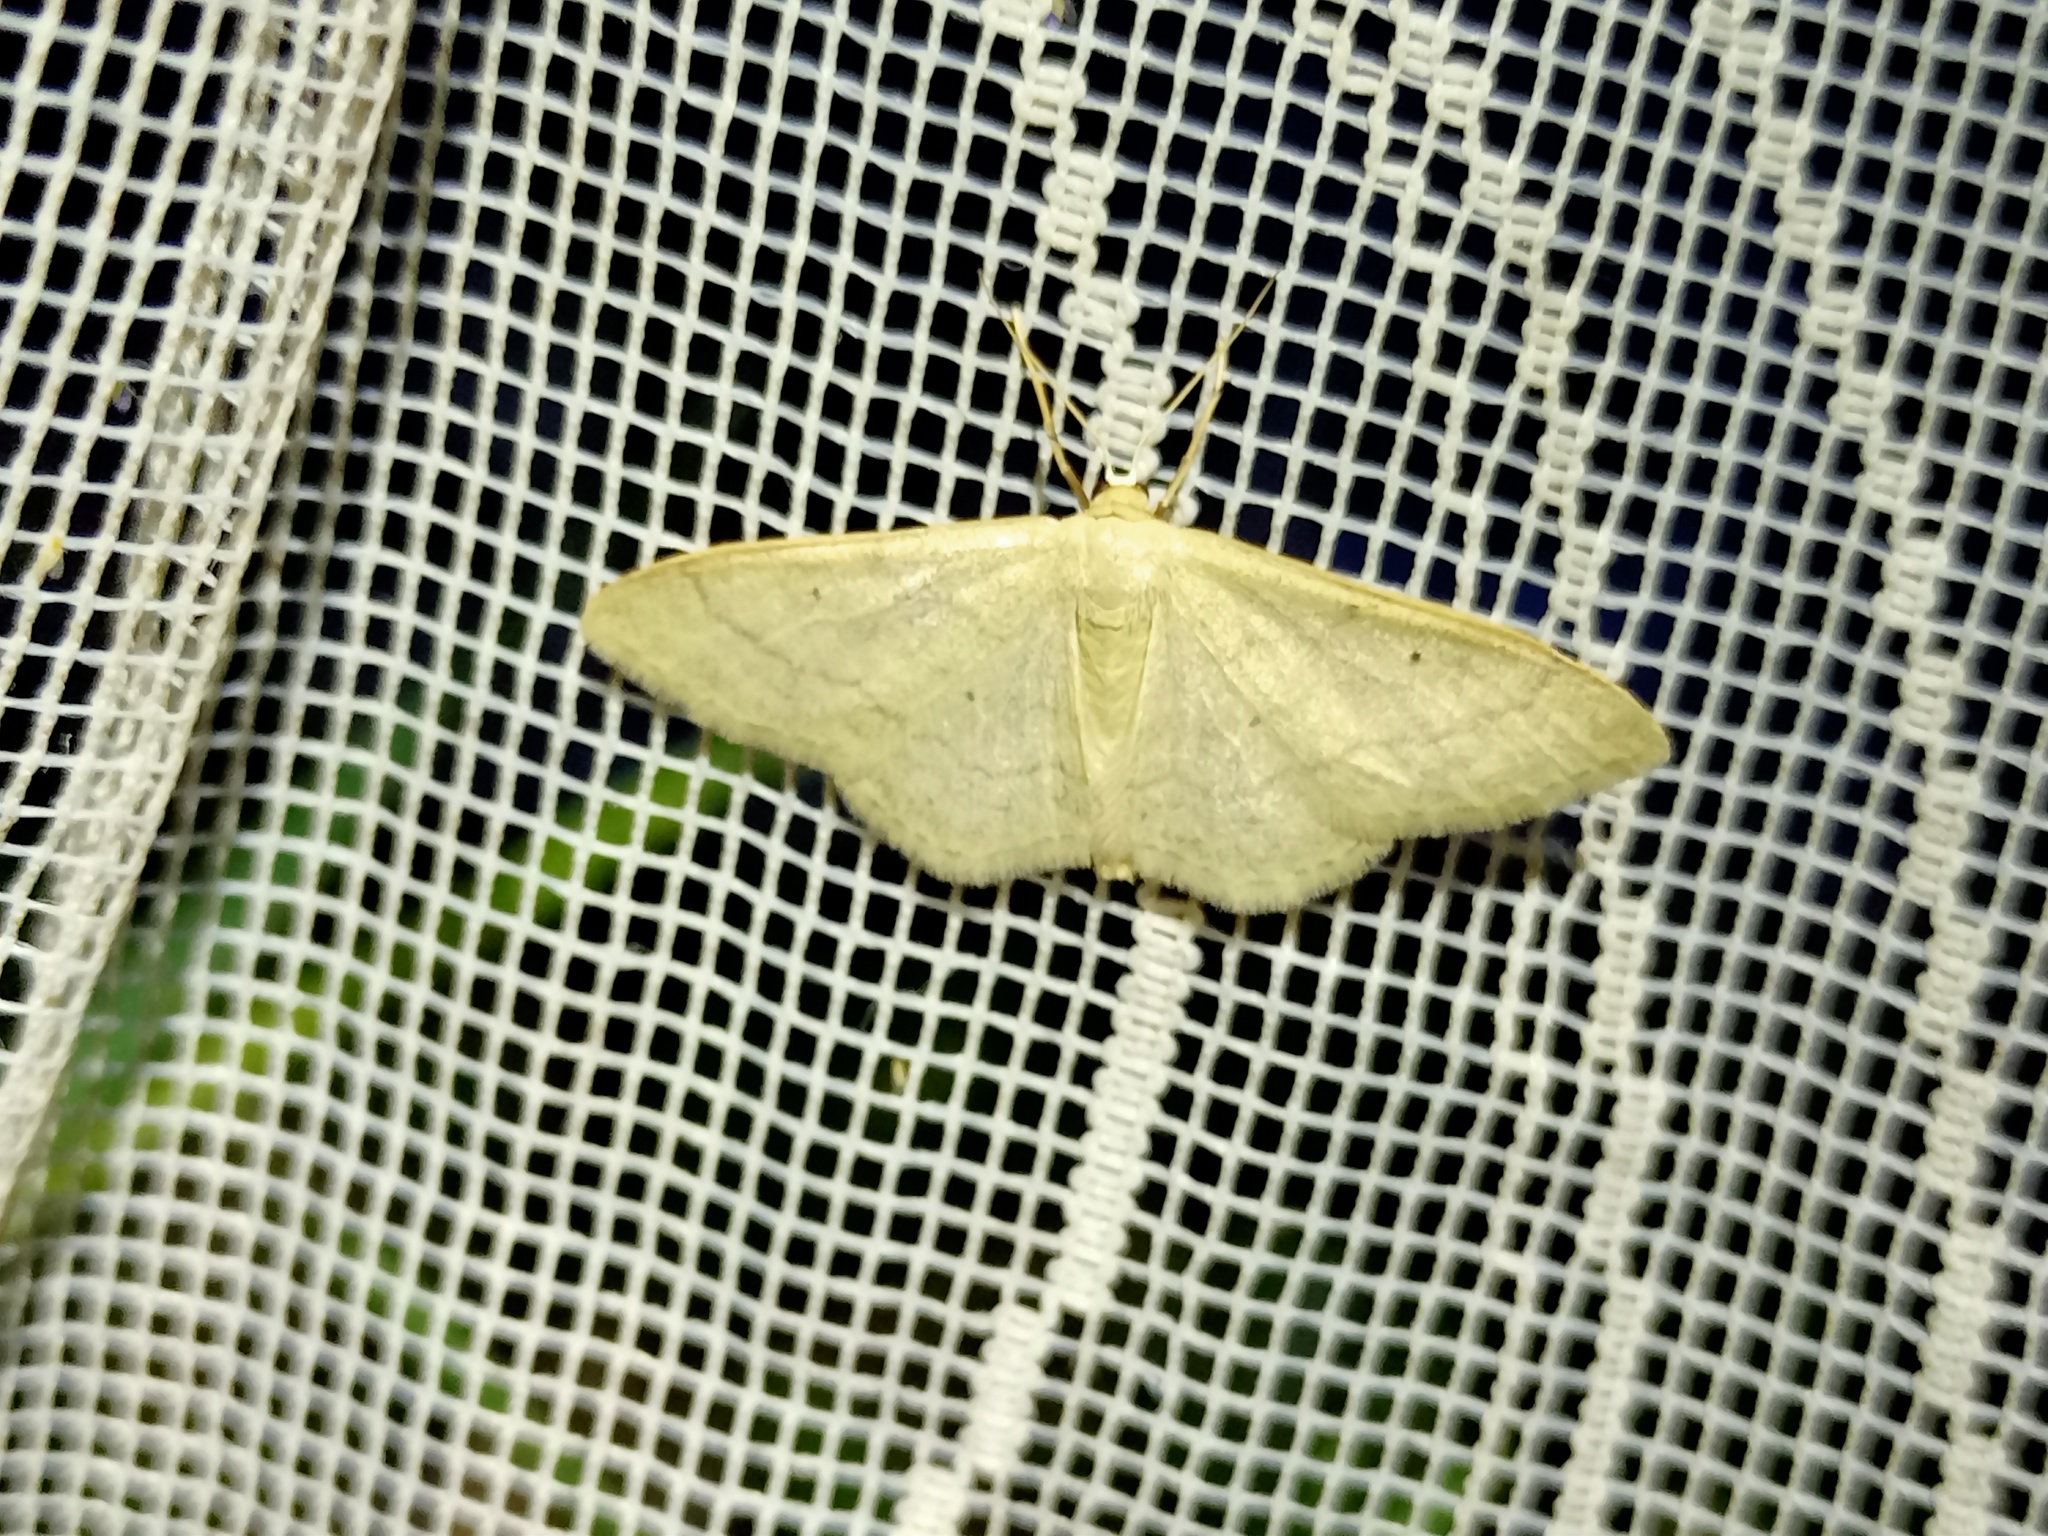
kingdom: Animalia
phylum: Arthropoda
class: Insecta
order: Lepidoptera
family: Geometridae
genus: Idaea
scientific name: Idaea straminata
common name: Plain wave
